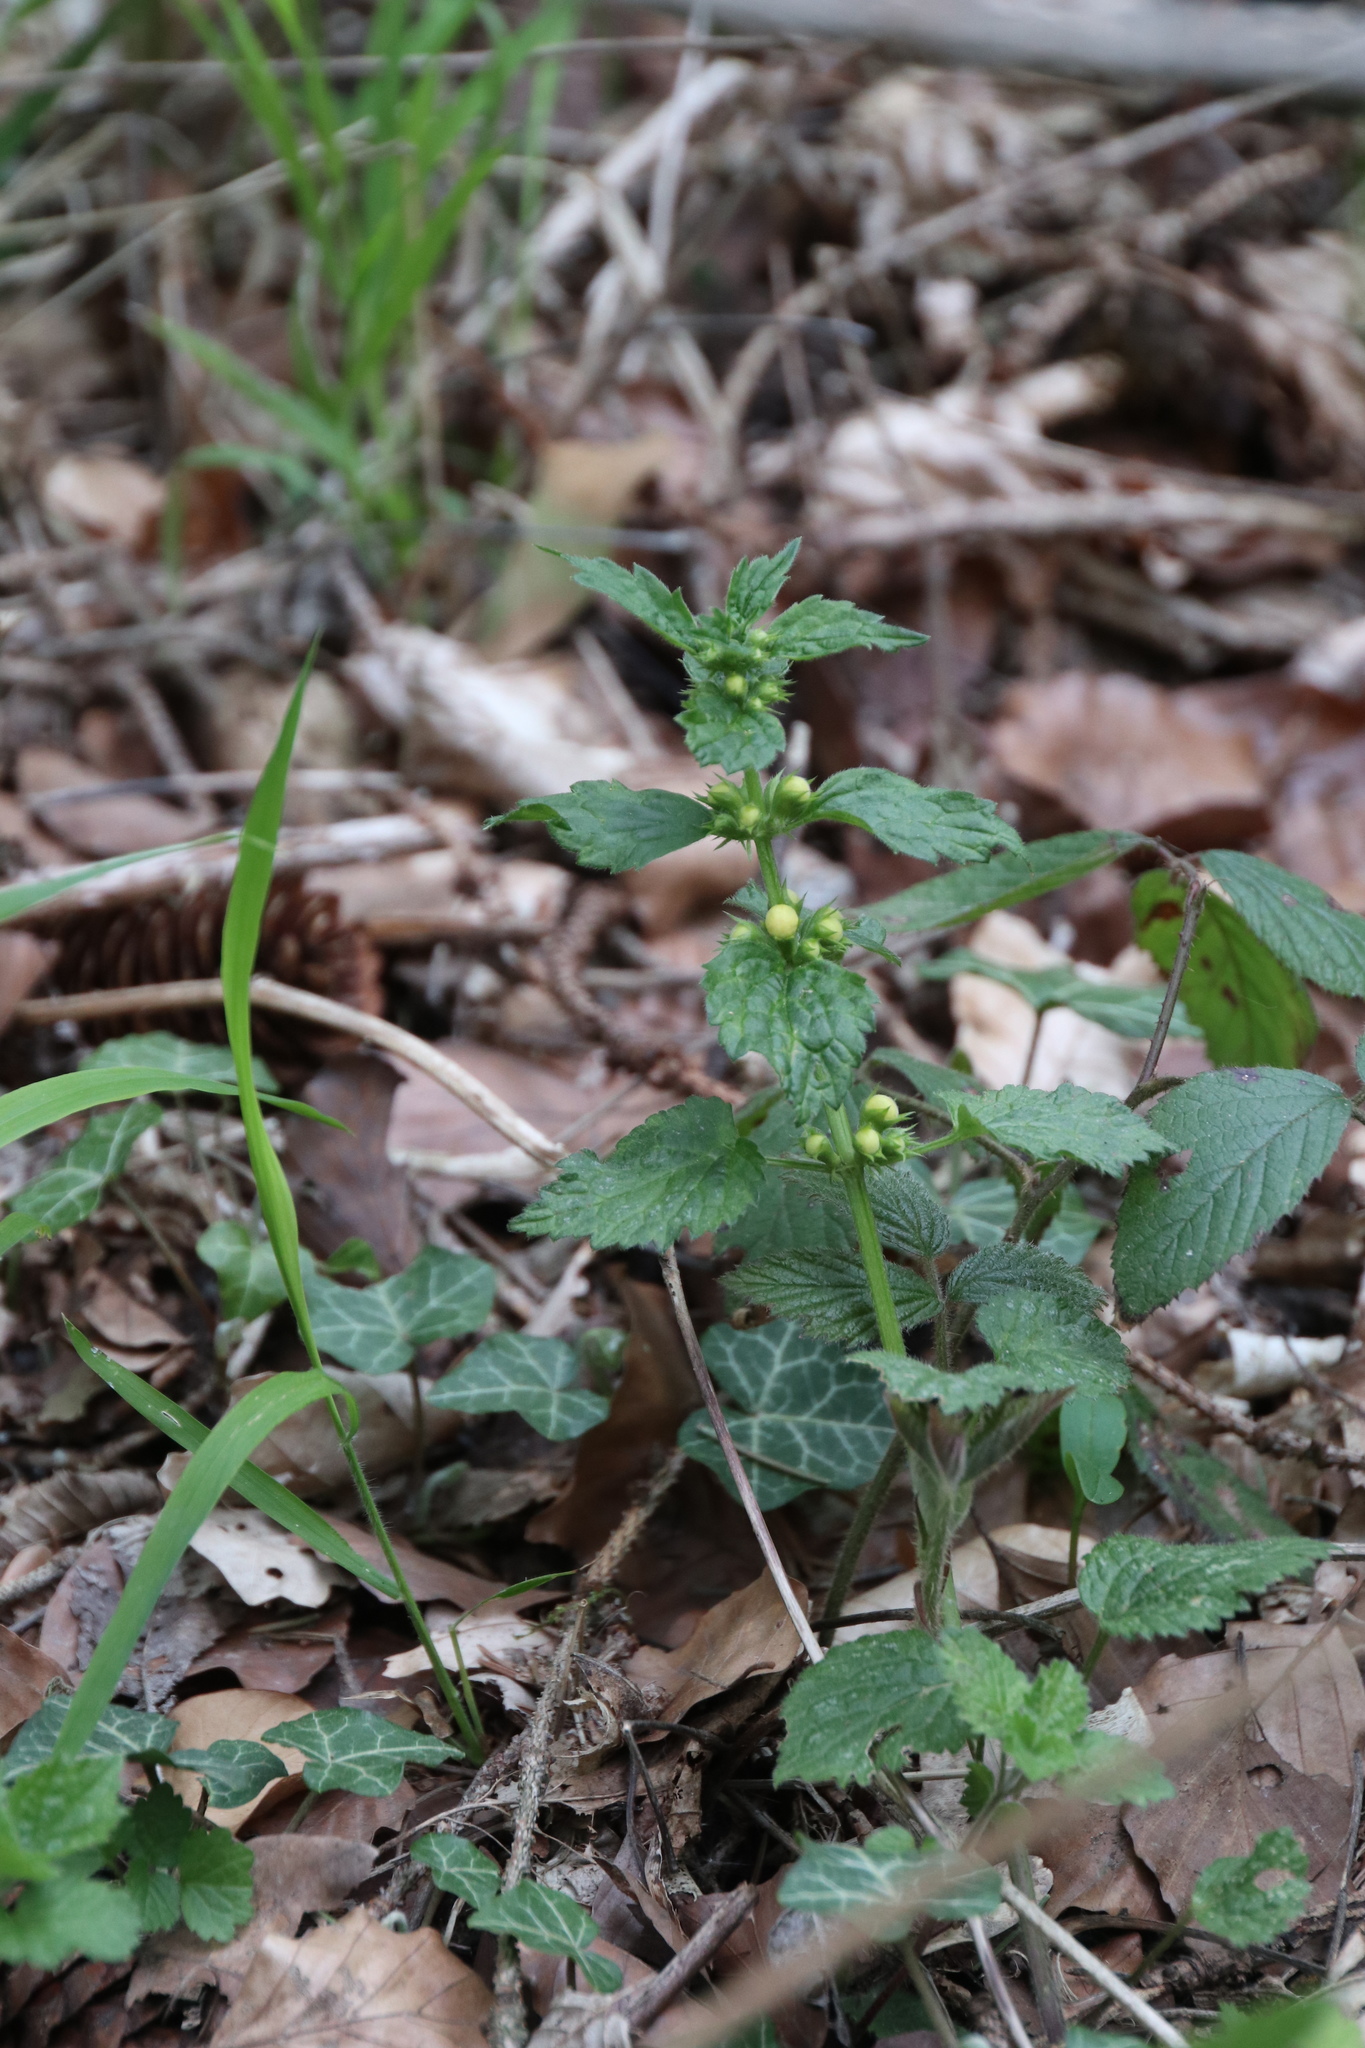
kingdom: Plantae
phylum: Tracheophyta
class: Magnoliopsida
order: Lamiales
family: Lamiaceae
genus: Lamium
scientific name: Lamium galeobdolon
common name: Yellow archangel
